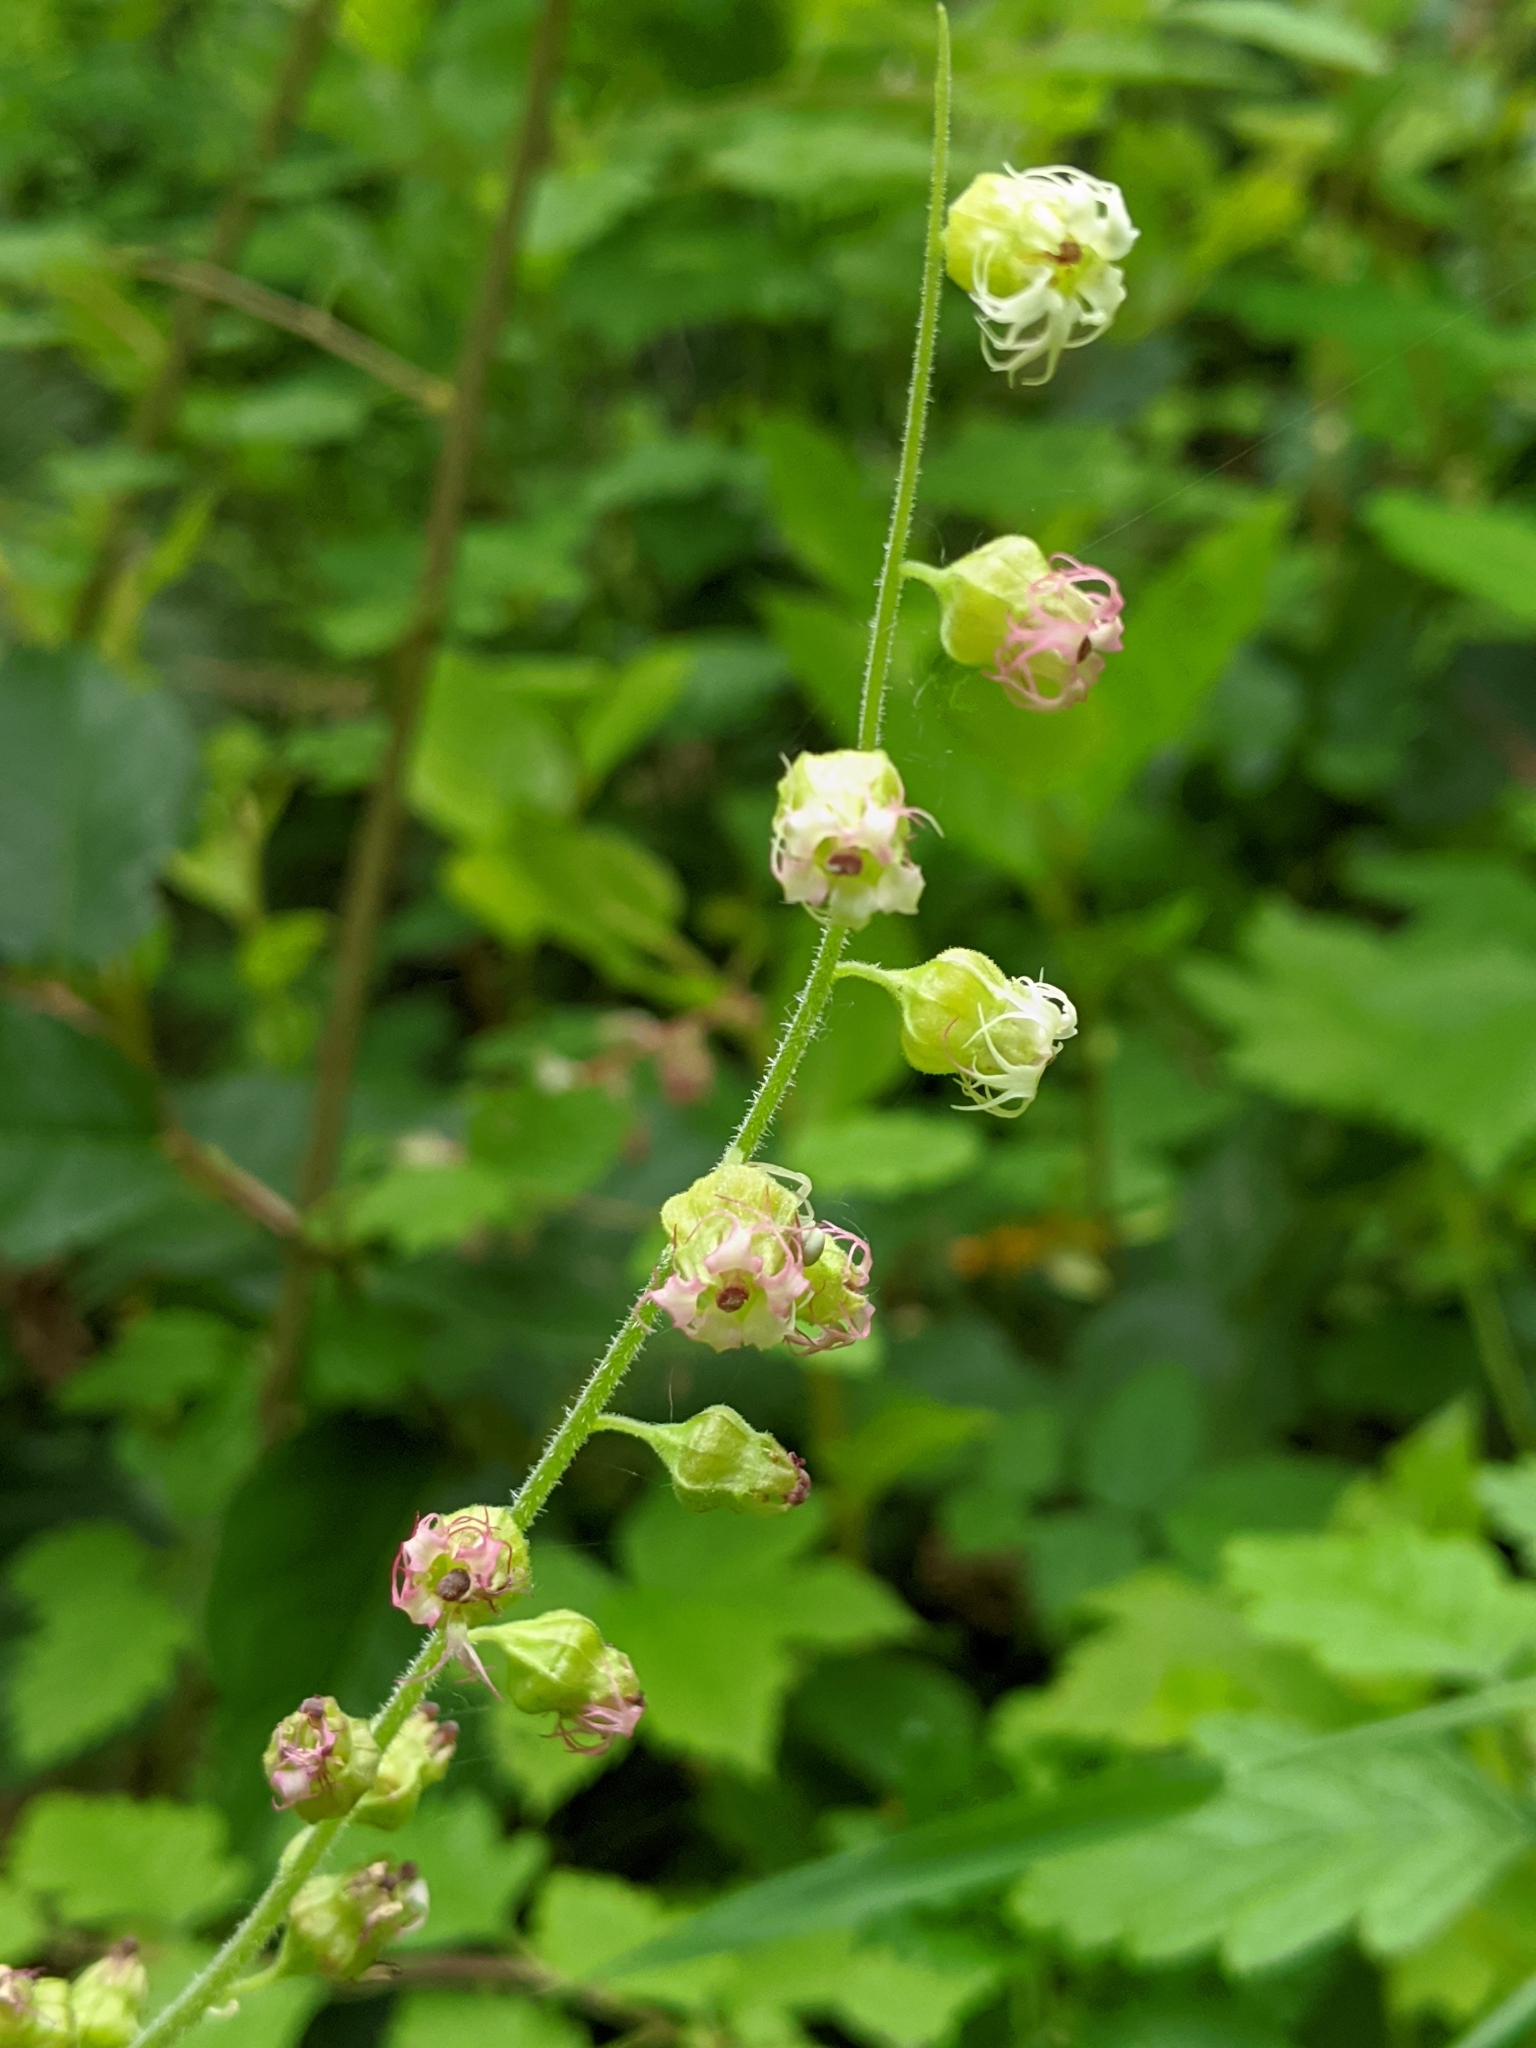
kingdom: Plantae
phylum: Tracheophyta
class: Magnoliopsida
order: Saxifragales
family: Saxifragaceae
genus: Tellima
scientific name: Tellima grandiflora
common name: Fringecups
